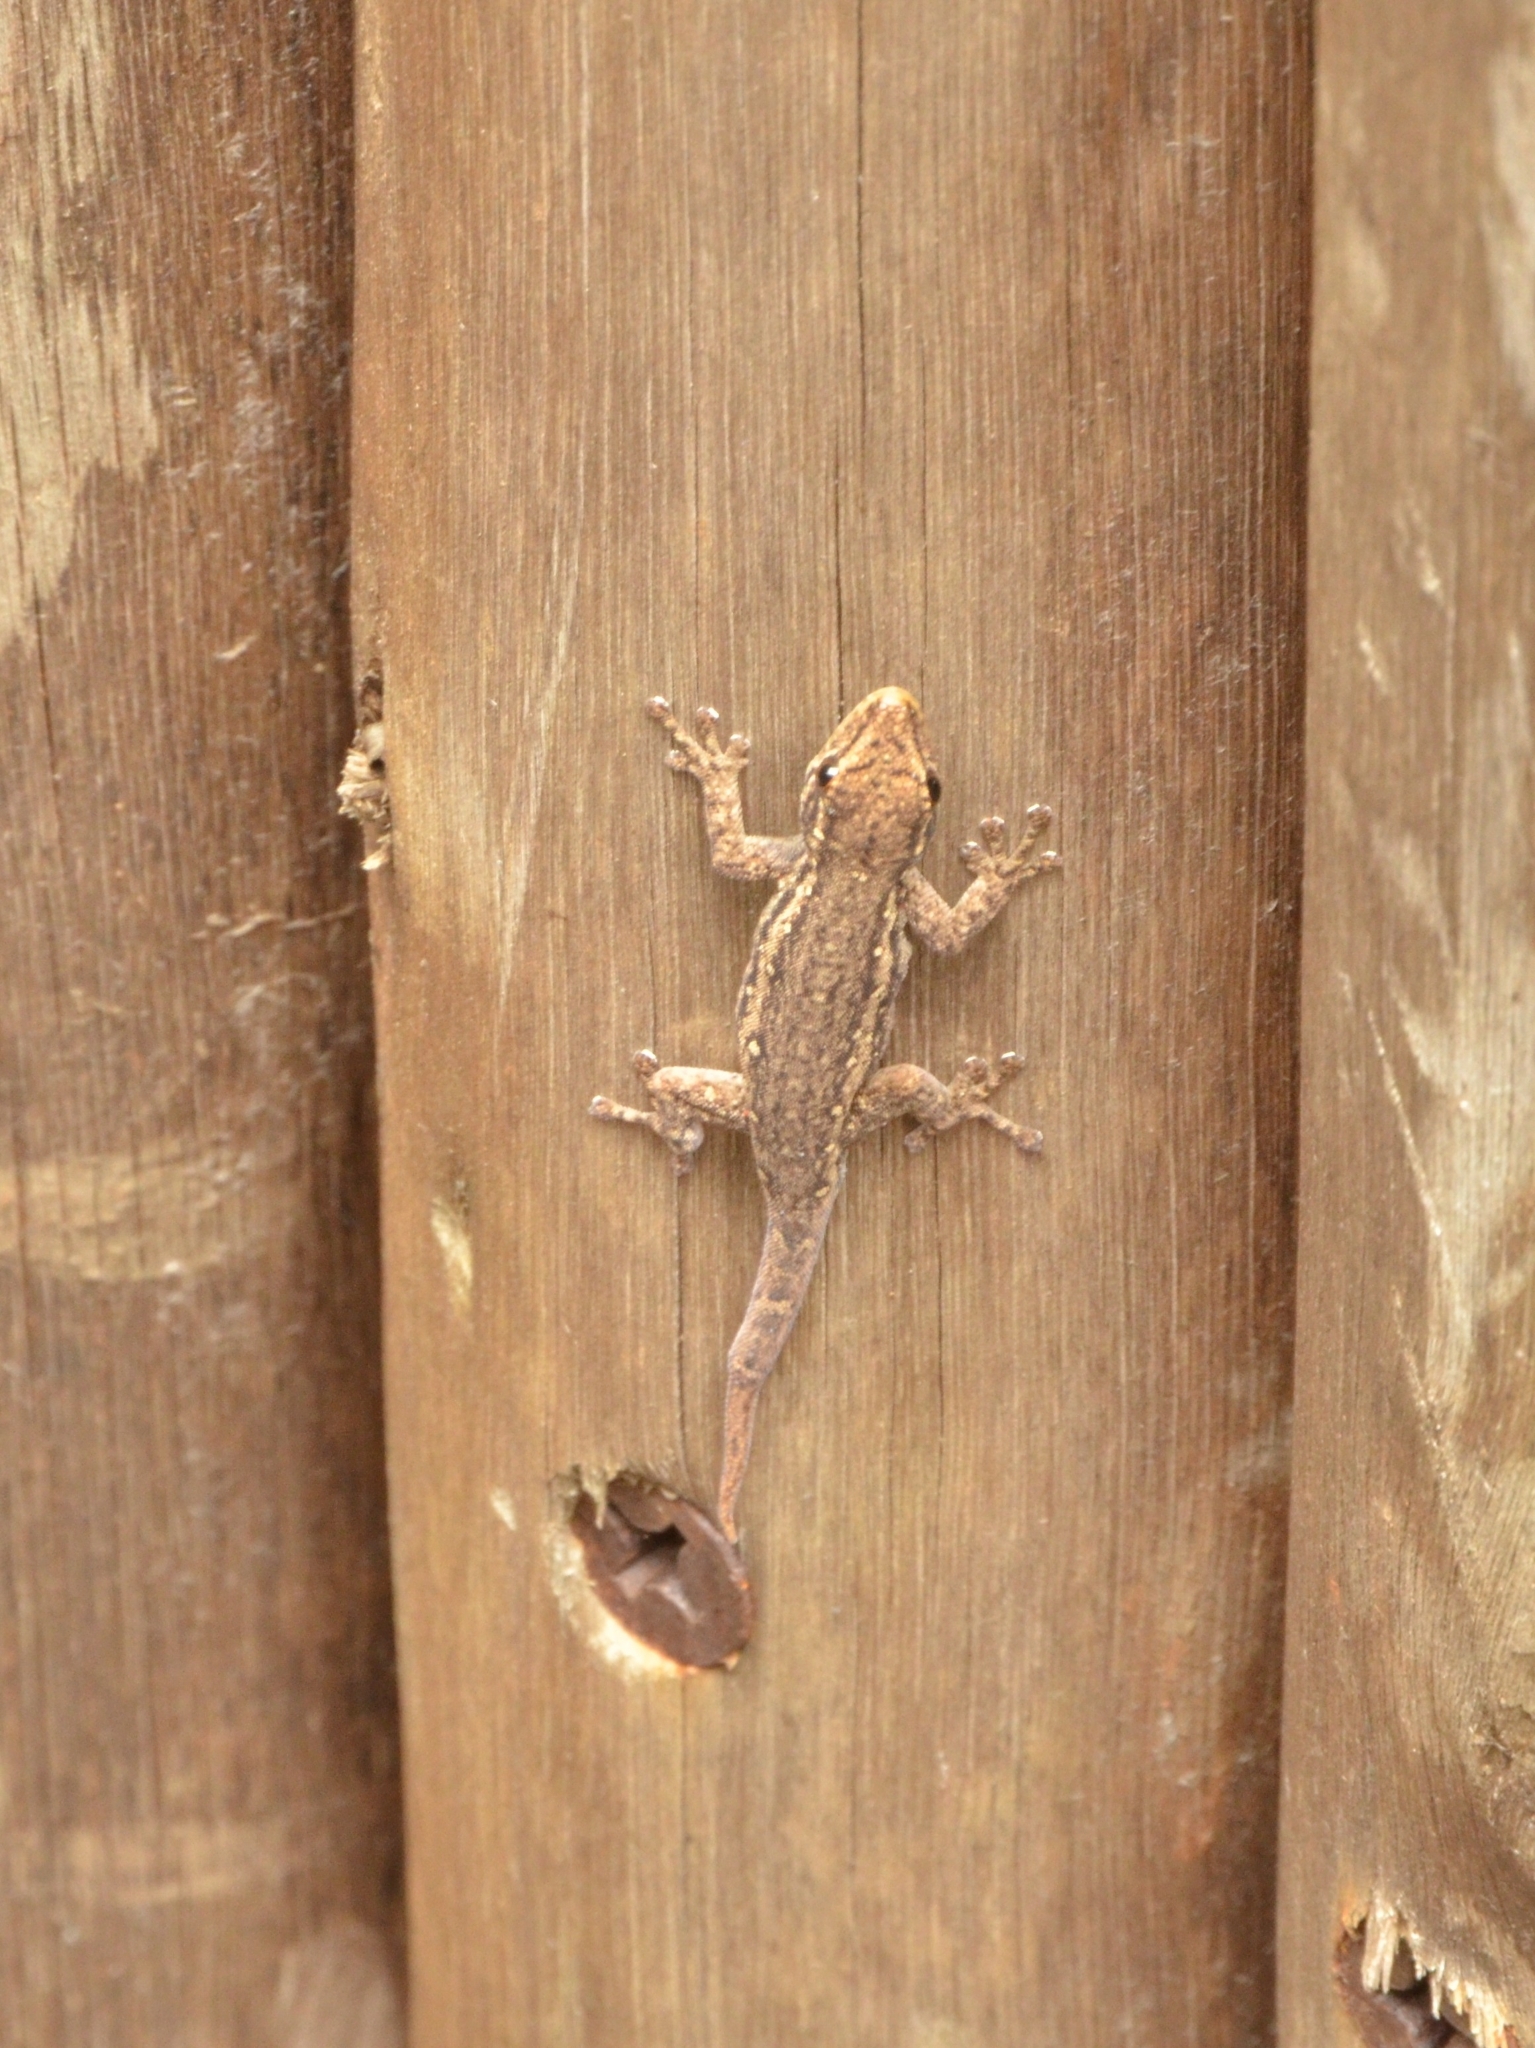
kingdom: Animalia
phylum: Chordata
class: Squamata
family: Gekkonidae
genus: Lygodactylus
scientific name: Lygodactylus capensis
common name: Cape dwarf gecko
